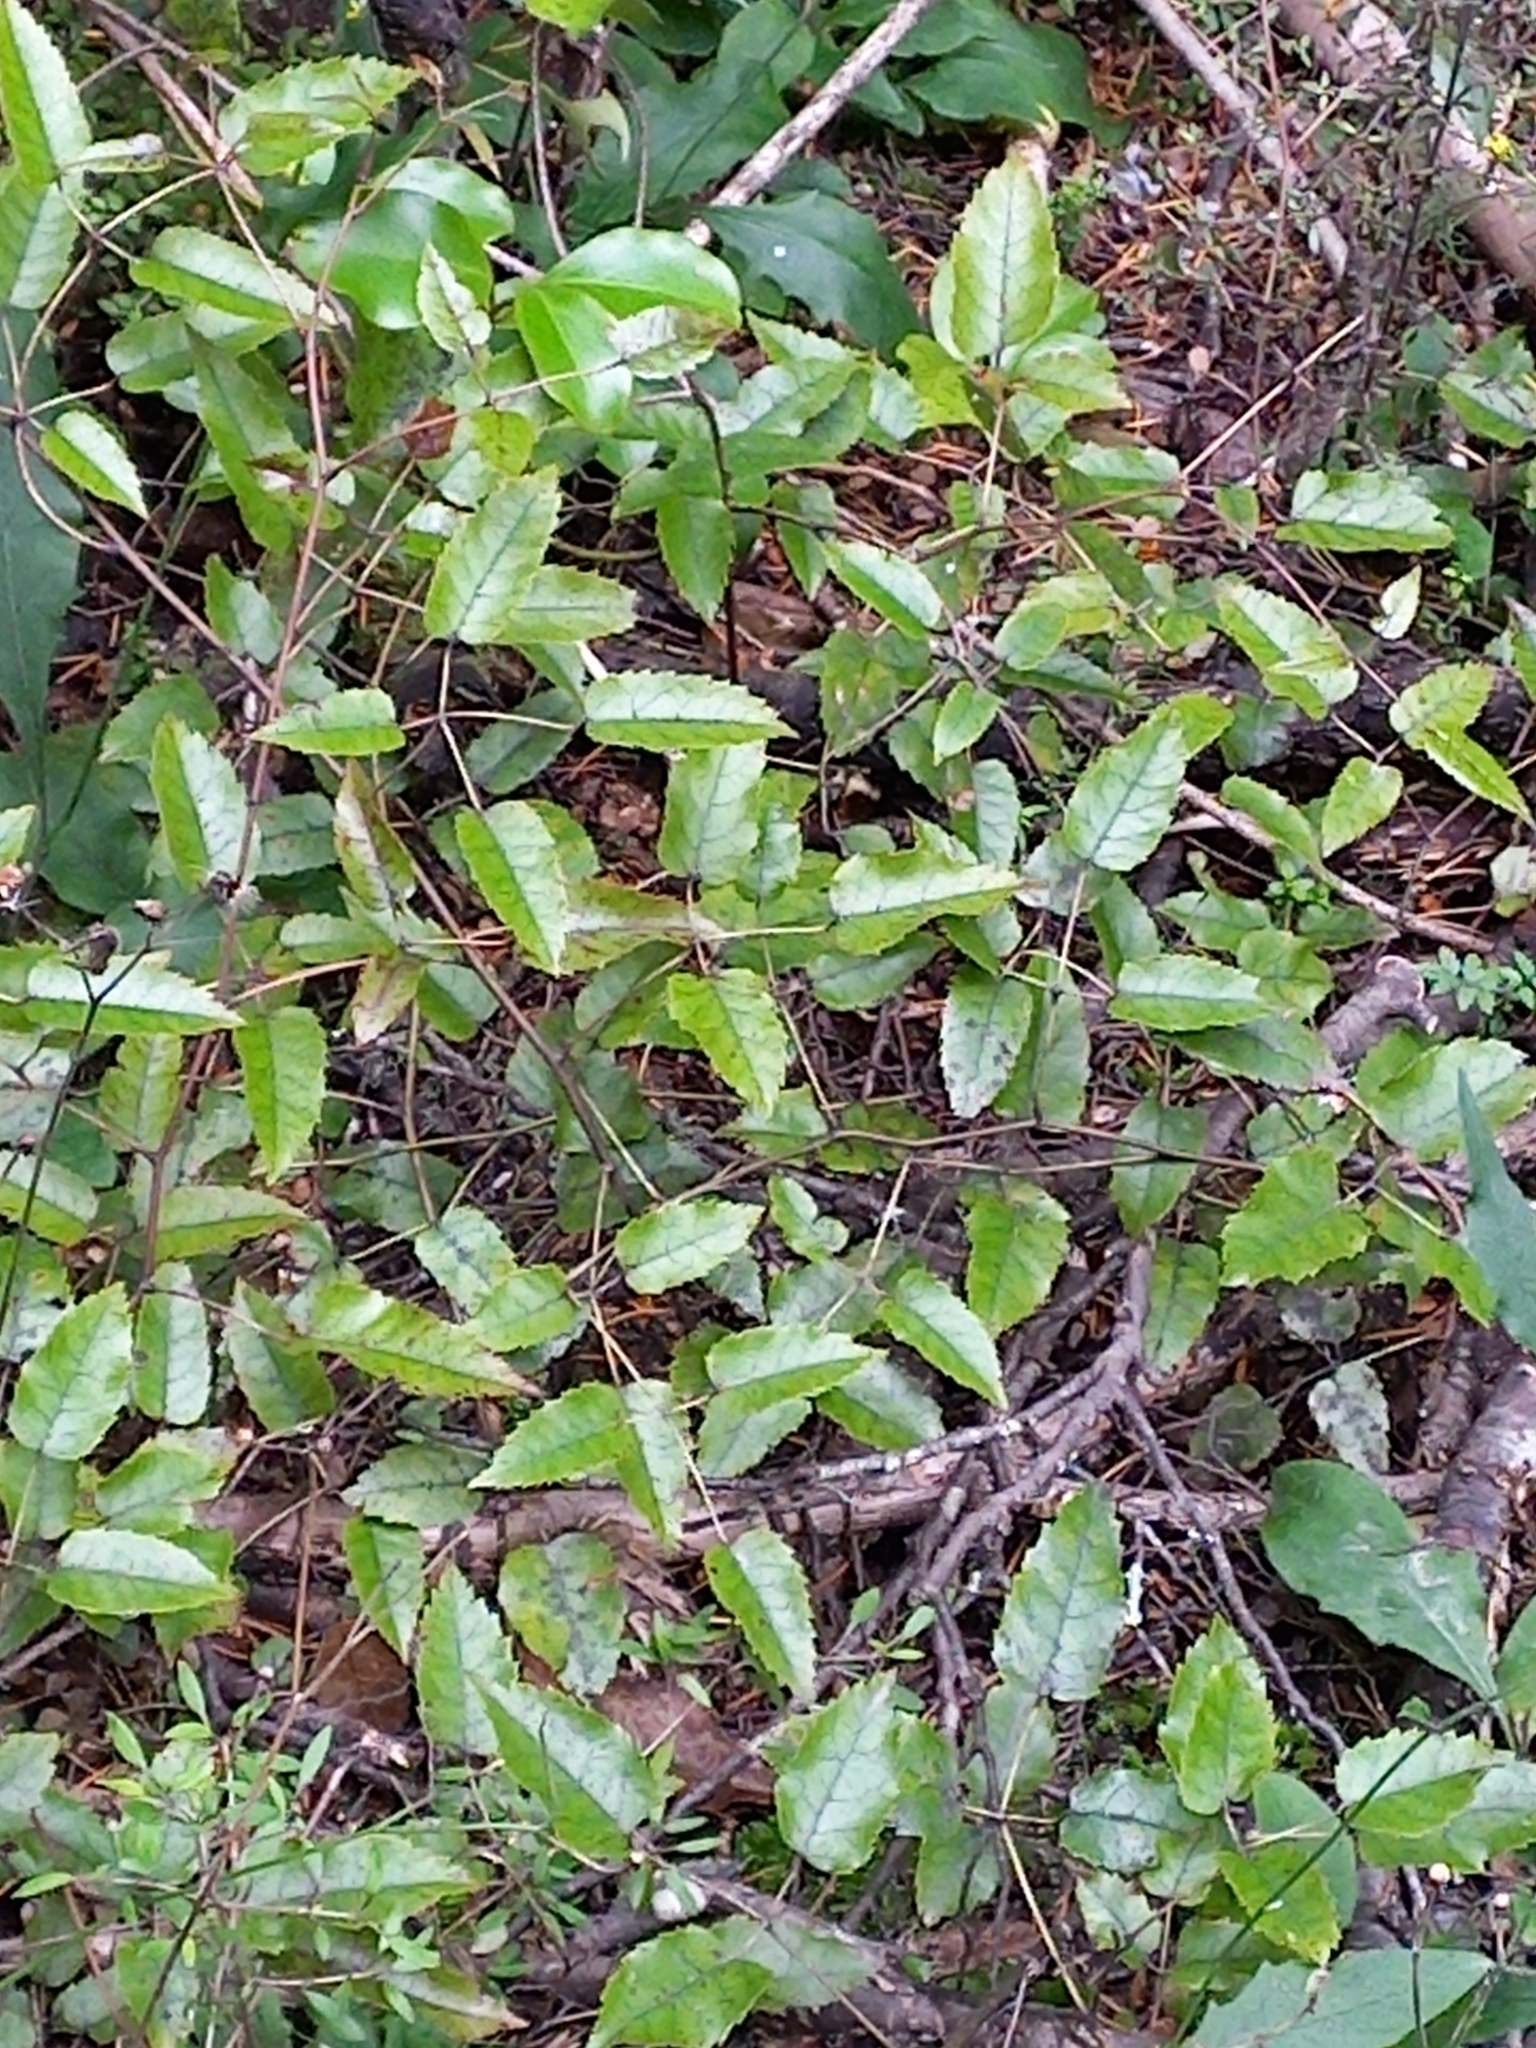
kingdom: Plantae
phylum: Tracheophyta
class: Magnoliopsida
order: Rosales
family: Rosaceae
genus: Rubus
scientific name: Rubus cissoides
